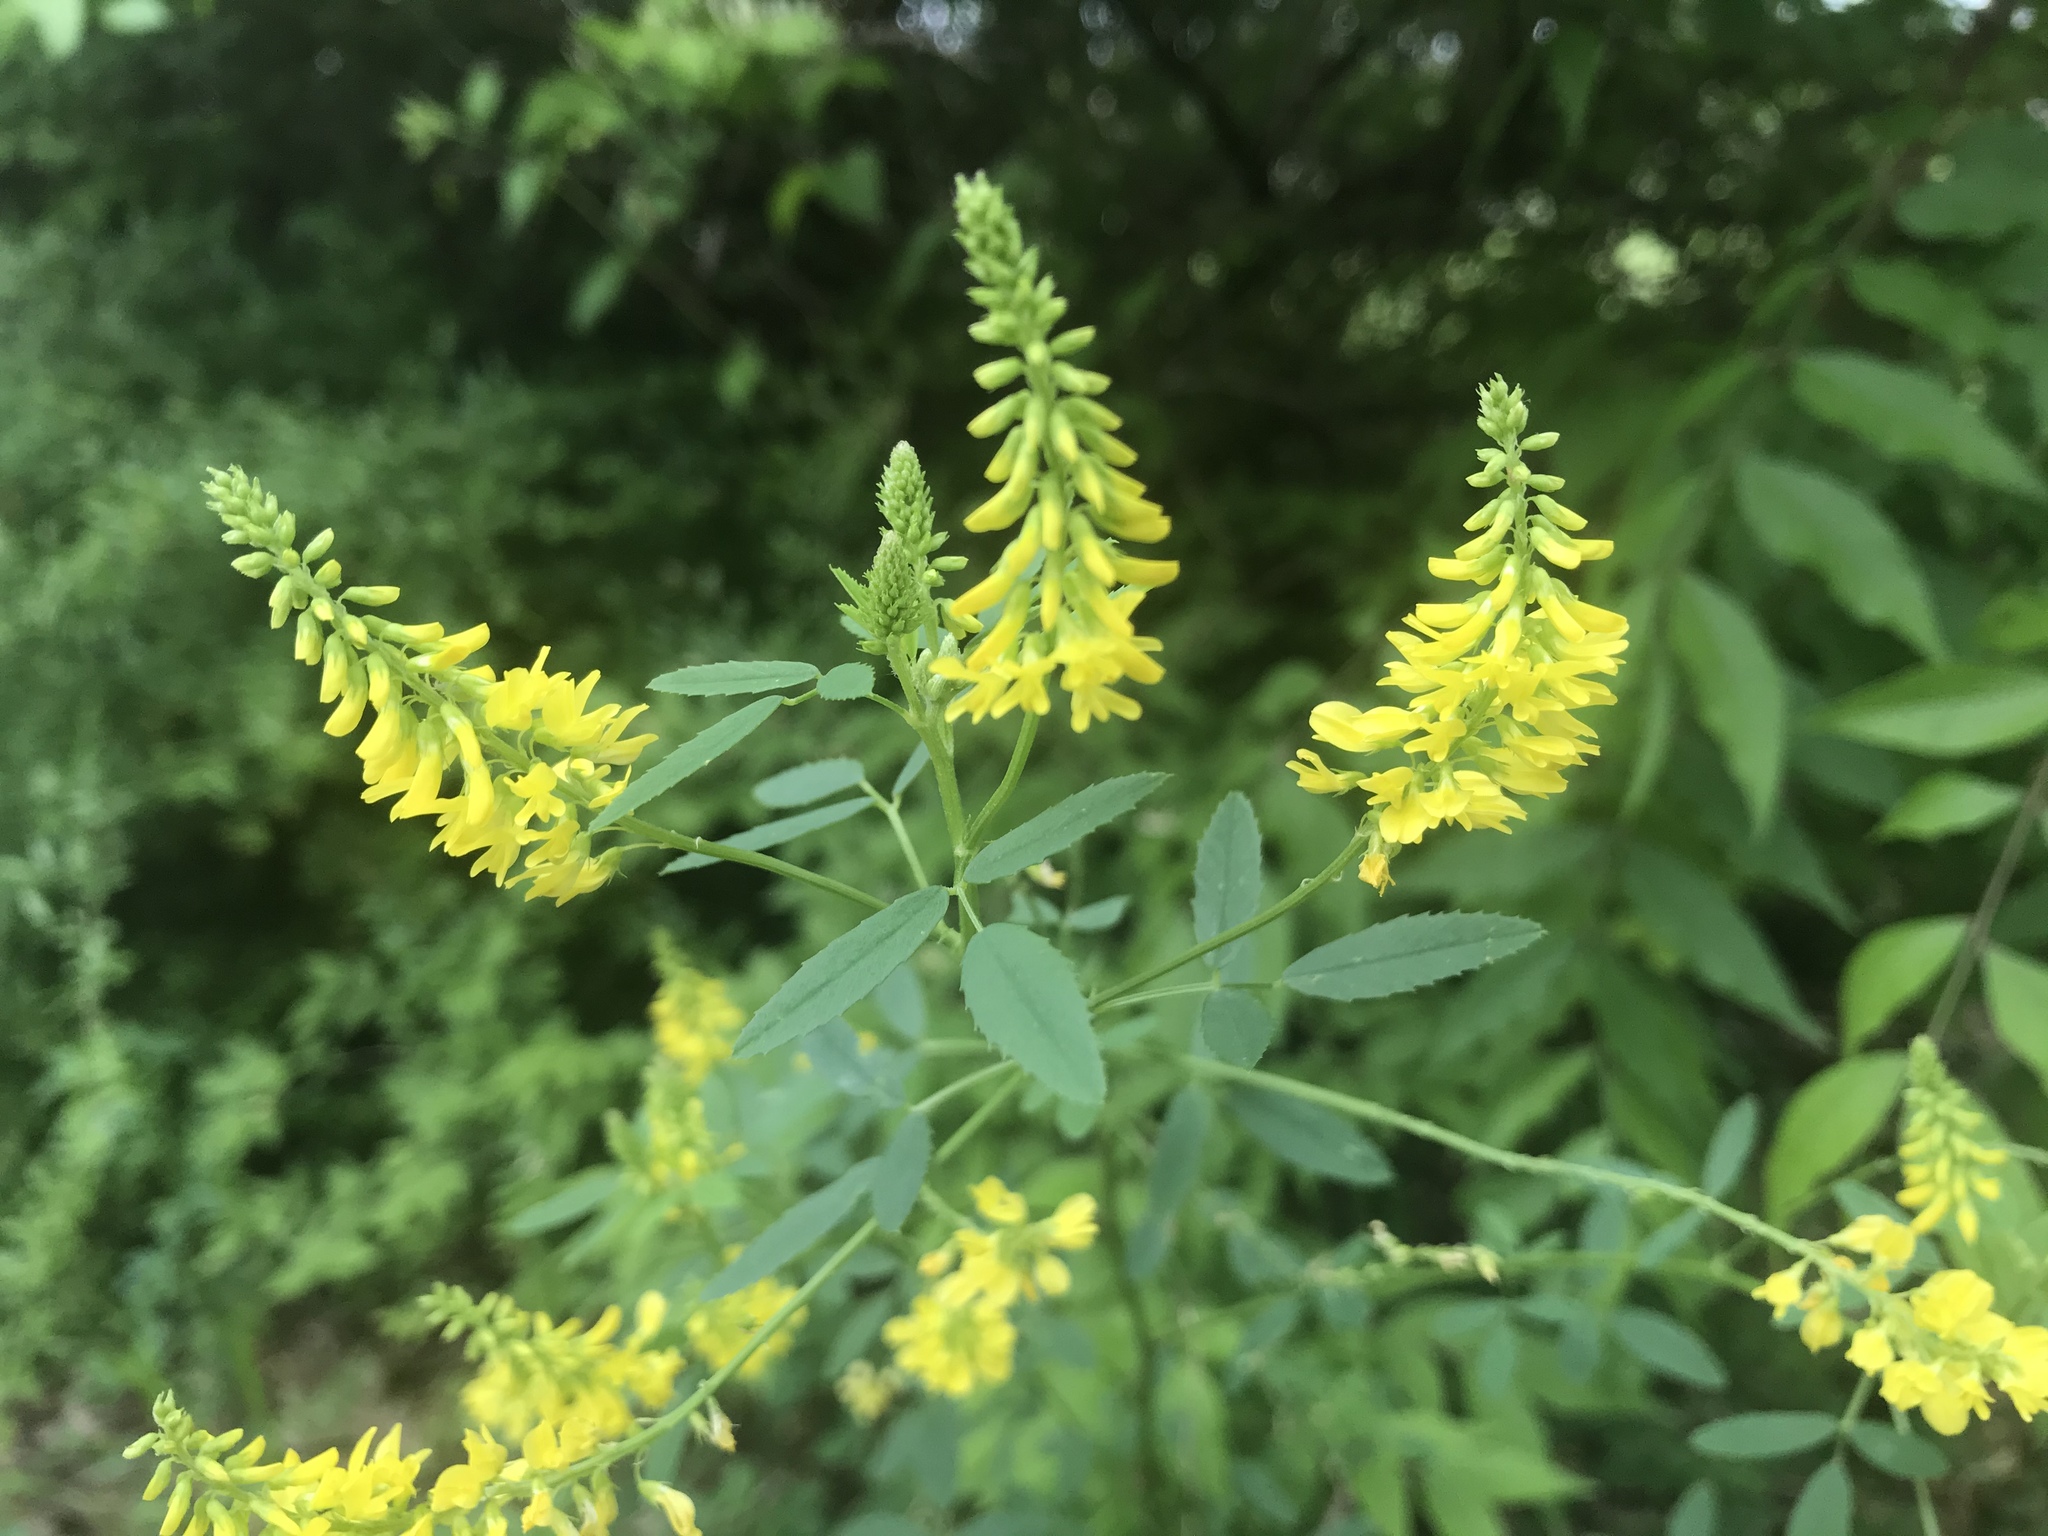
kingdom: Plantae
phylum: Tracheophyta
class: Magnoliopsida
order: Fabales
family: Fabaceae
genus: Melilotus
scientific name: Melilotus officinalis
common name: Sweetclover
